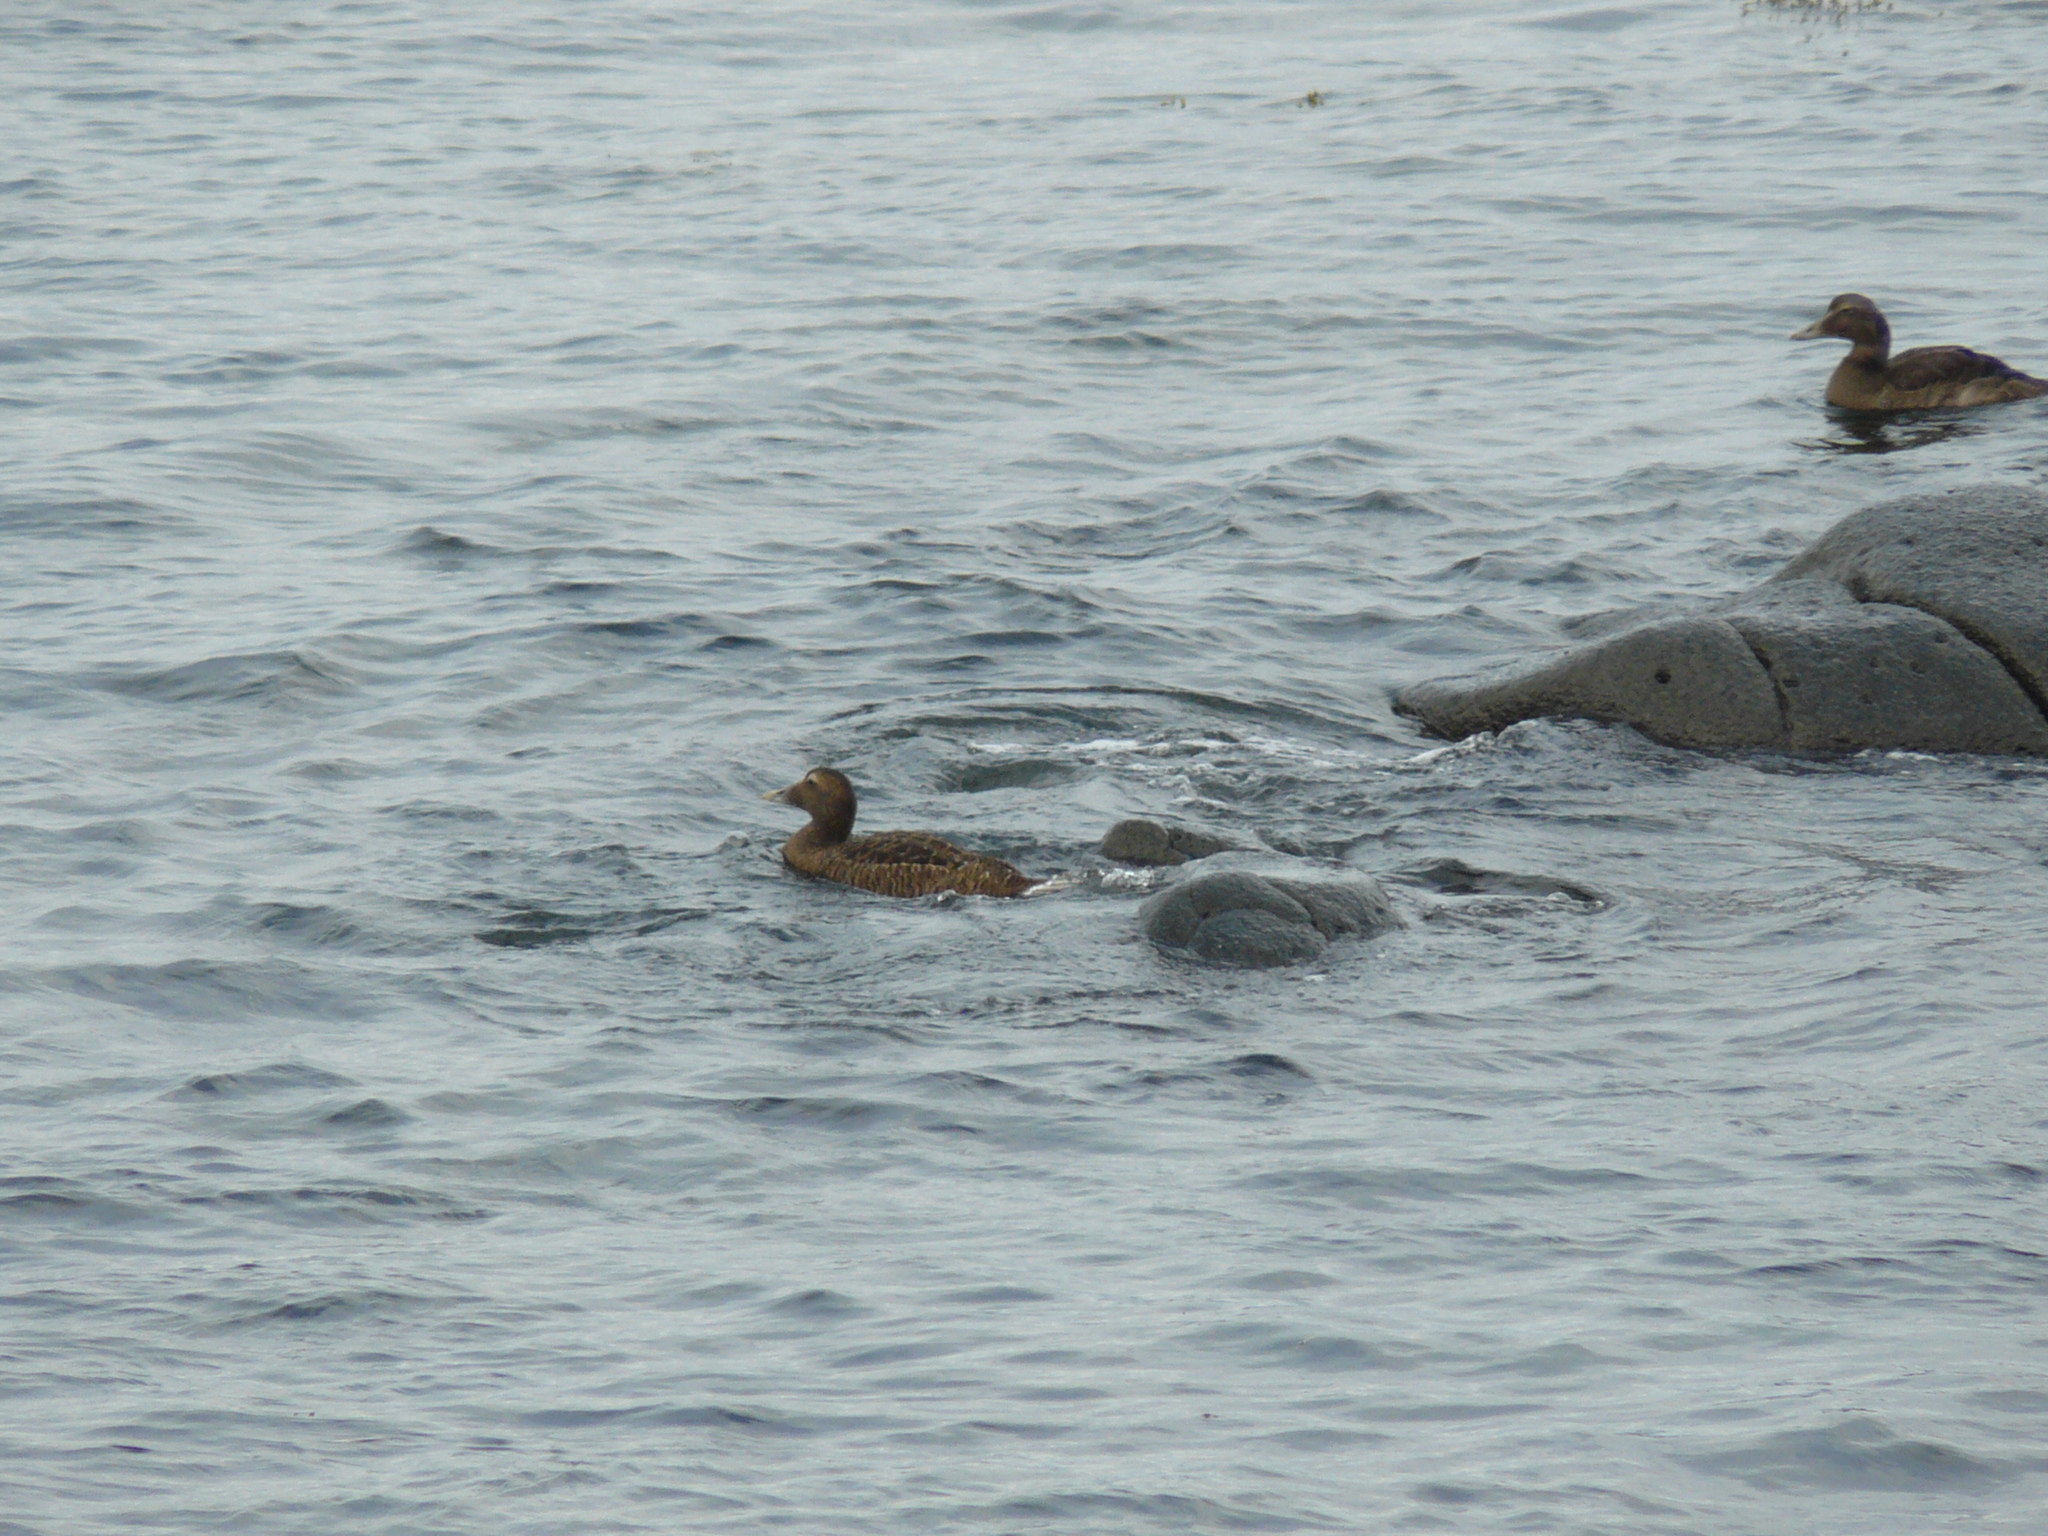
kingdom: Animalia
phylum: Chordata
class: Aves
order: Anseriformes
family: Anatidae
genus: Somateria
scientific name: Somateria mollissima
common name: Common eider
